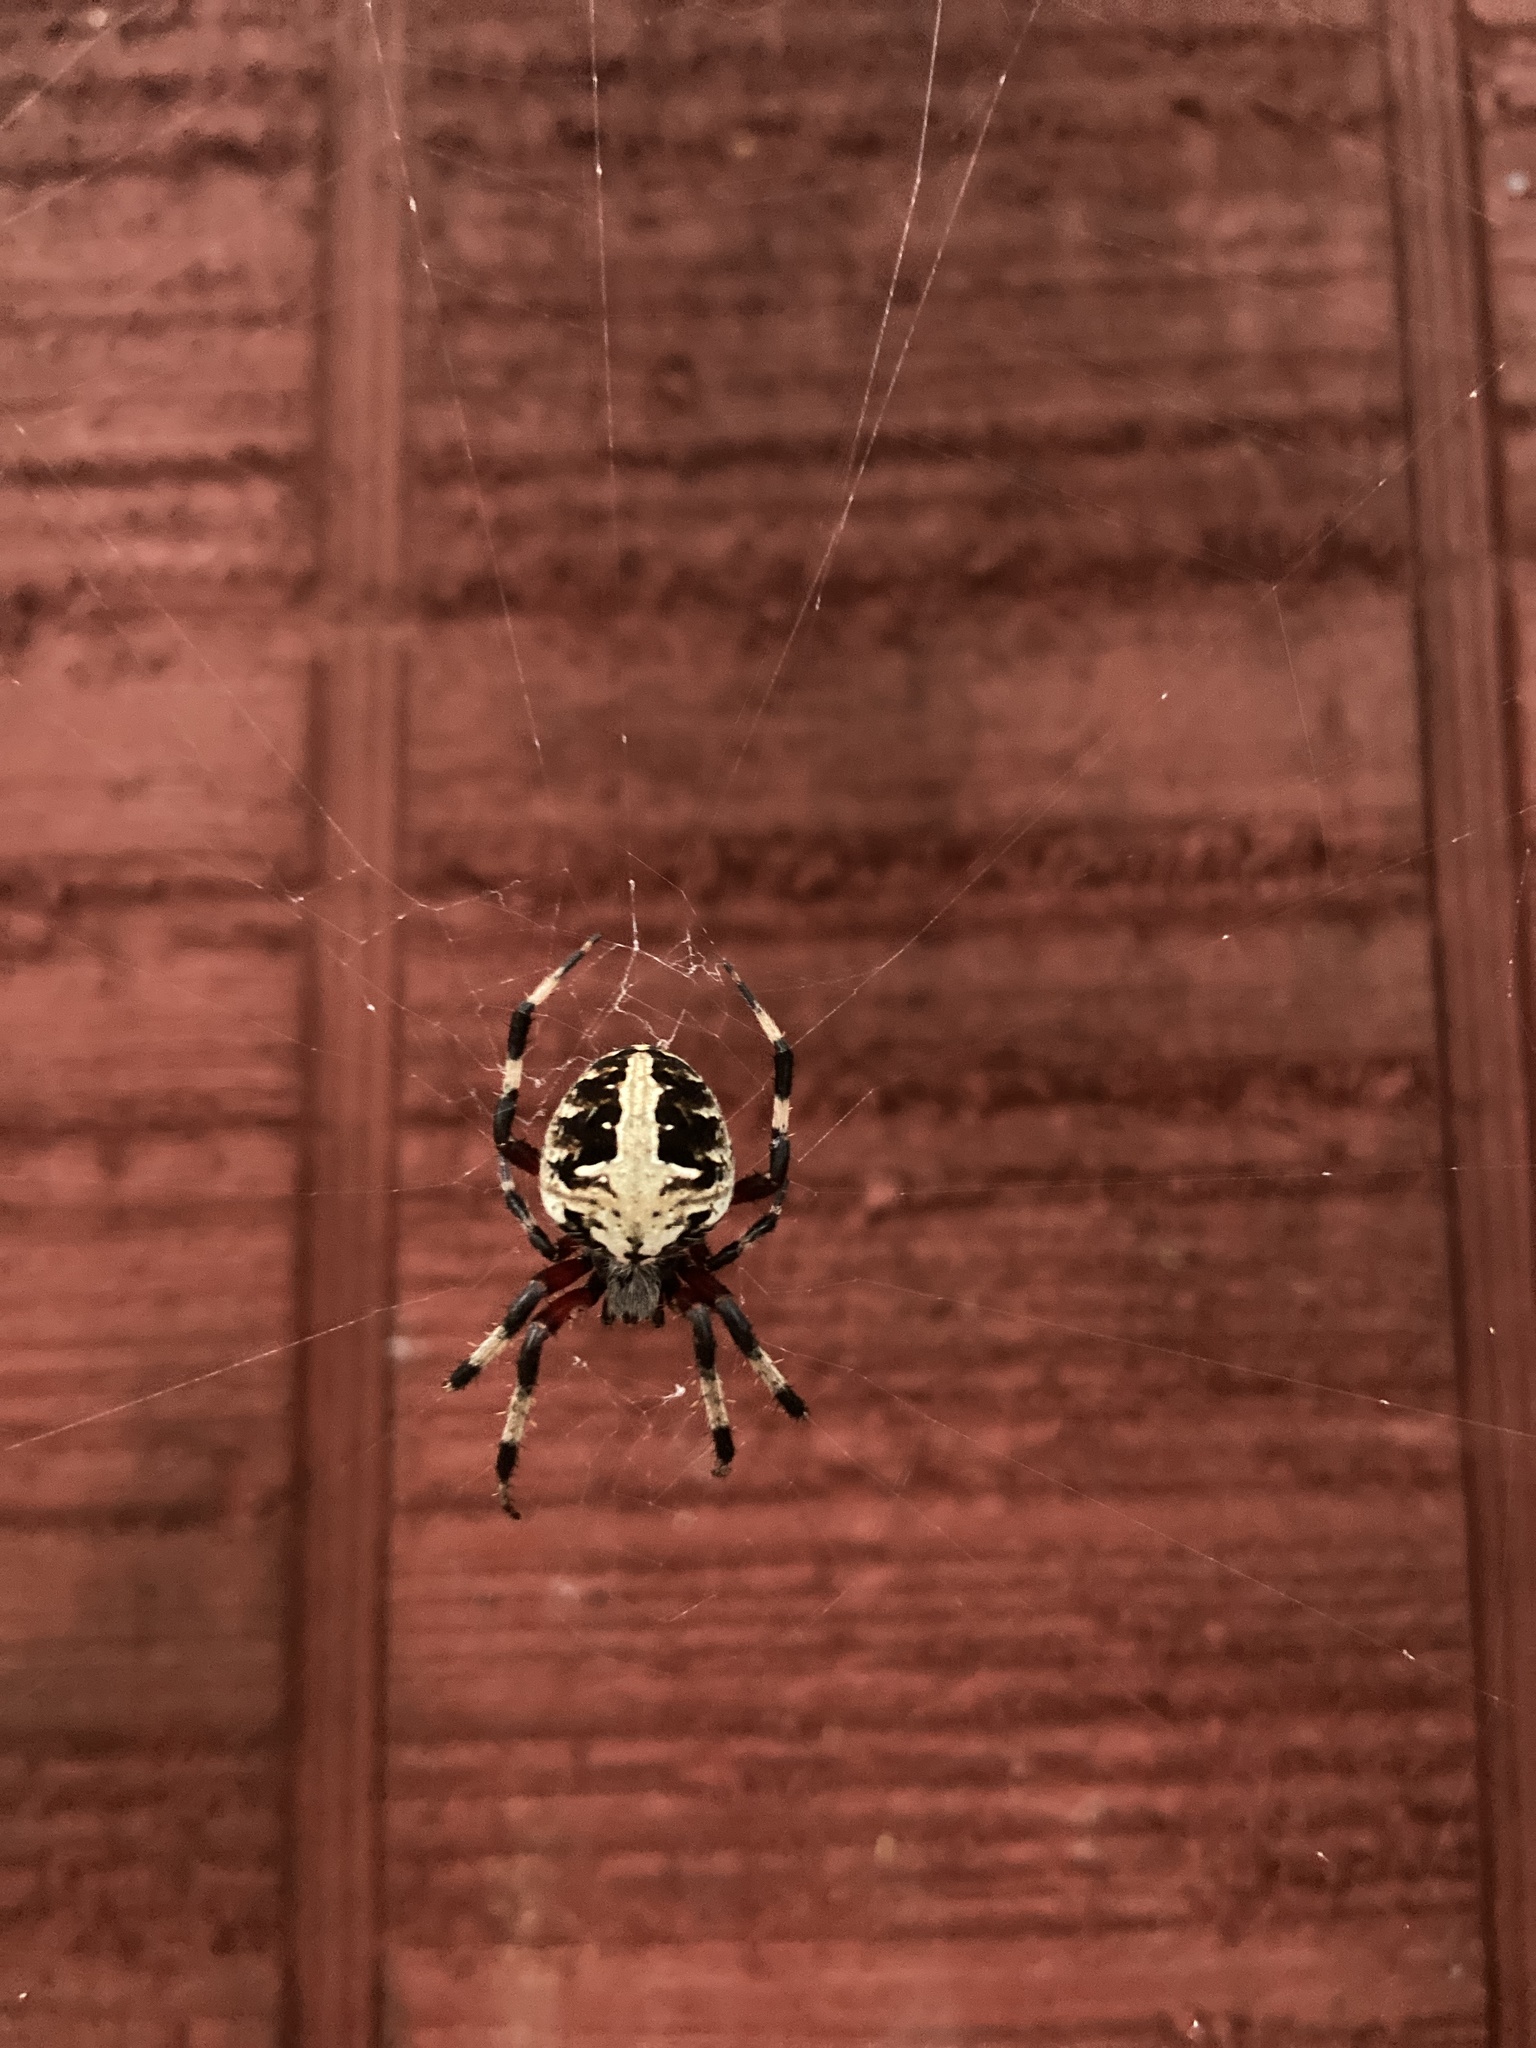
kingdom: Animalia
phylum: Arthropoda
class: Arachnida
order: Araneae
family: Araneidae
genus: Neoscona
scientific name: Neoscona domiciliorum
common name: Red-femured spotted orbweaver
